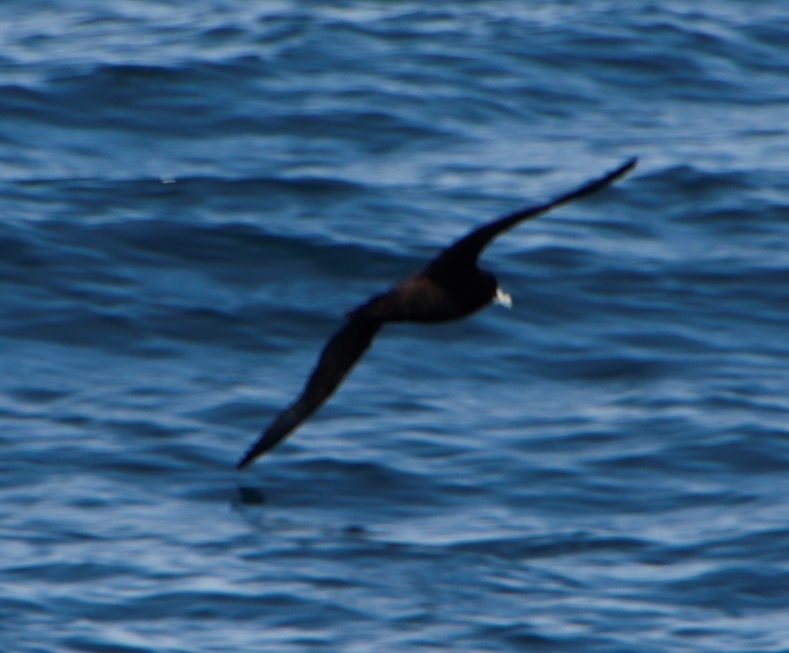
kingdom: Animalia
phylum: Chordata
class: Aves
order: Procellariiformes
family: Procellariidae
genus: Procellaria
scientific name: Procellaria aequinoctialis
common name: White-chinned petrel
